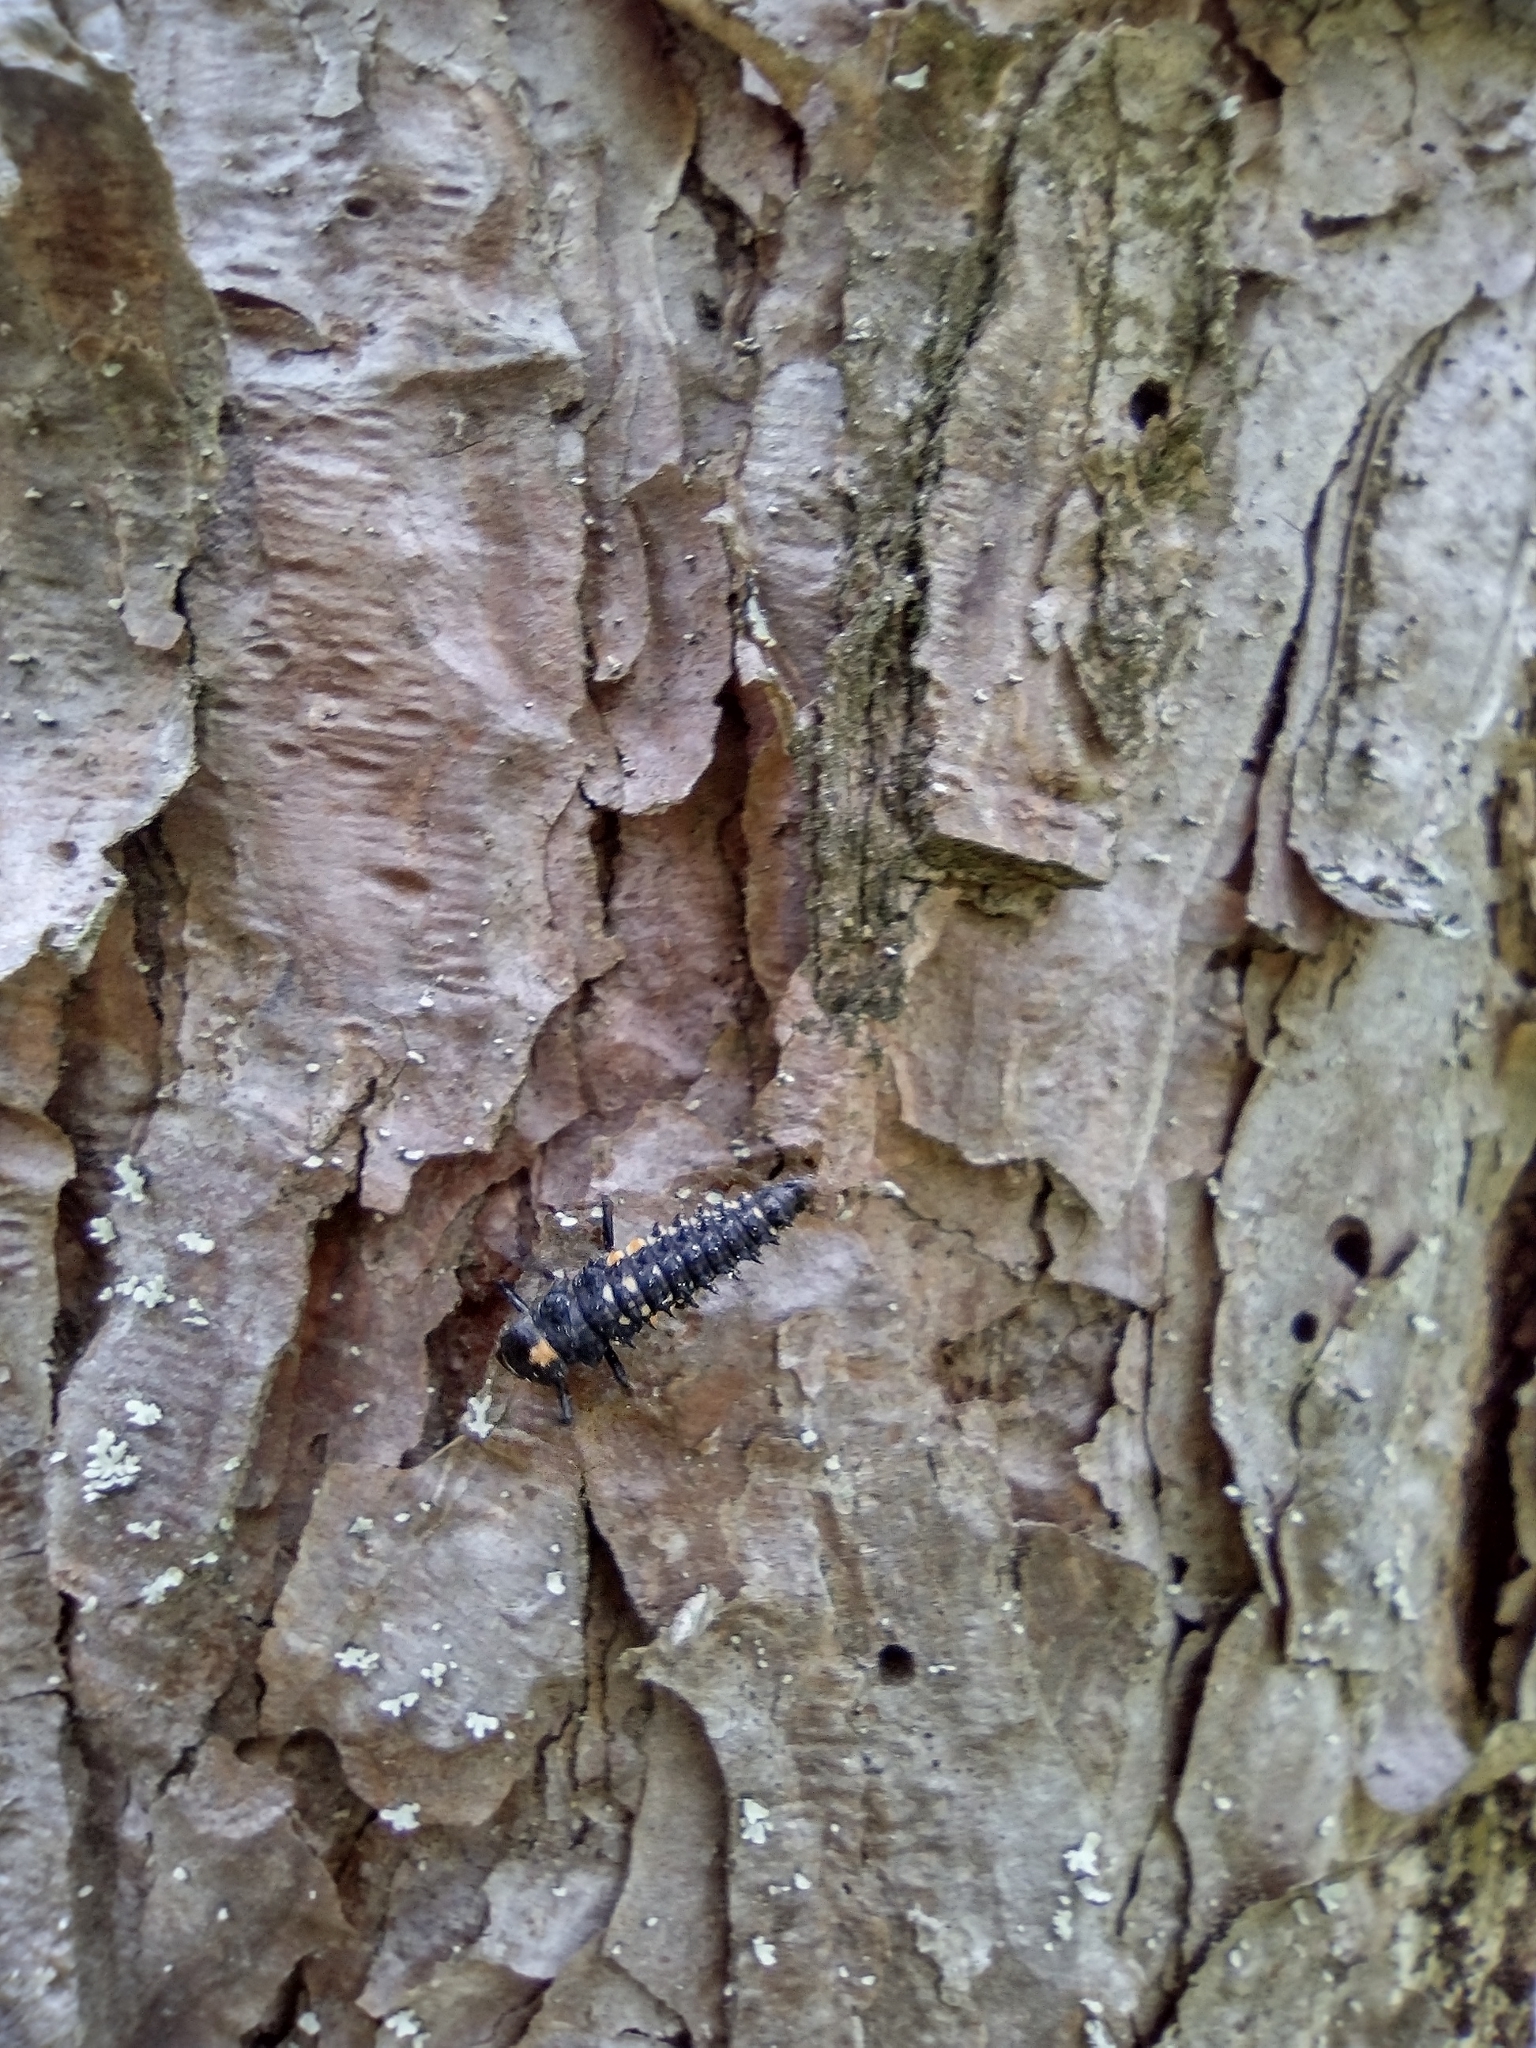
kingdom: Animalia
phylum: Arthropoda
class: Insecta
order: Coleoptera
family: Coccinellidae
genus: Anatis
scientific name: Anatis ocellata
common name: Eyed ladybird
